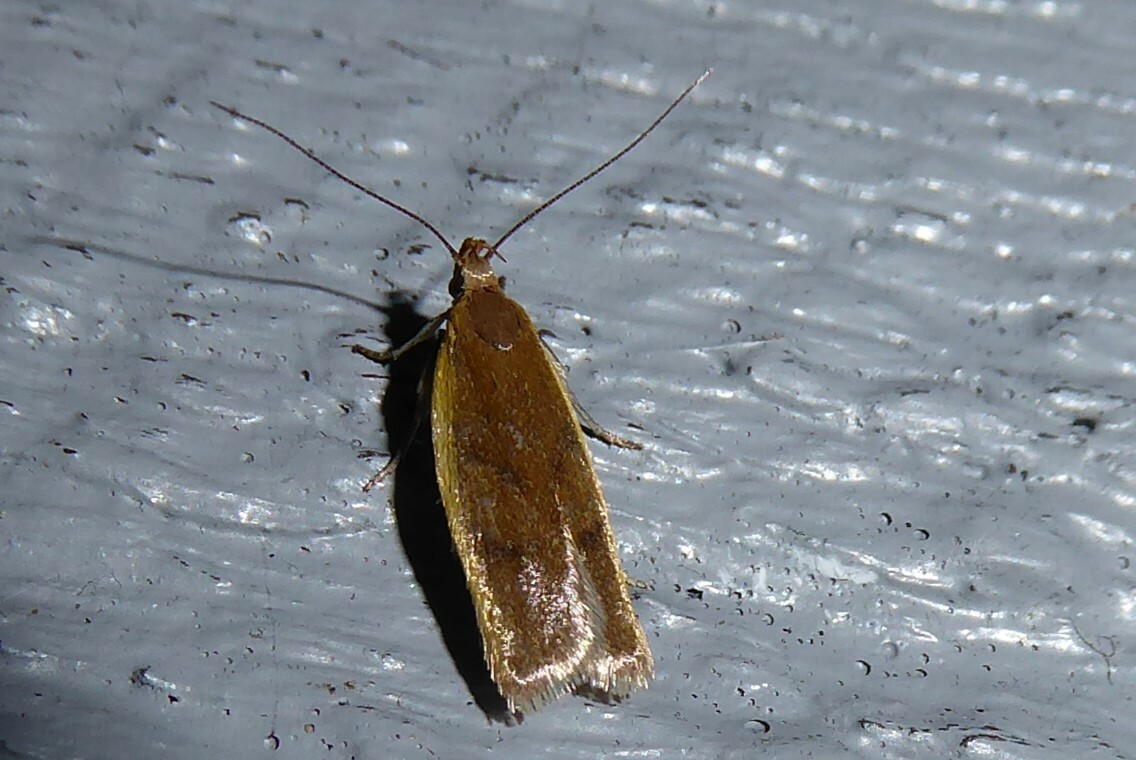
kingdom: Animalia
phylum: Arthropoda
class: Insecta
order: Lepidoptera
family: Oecophoridae
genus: Gymnobathra
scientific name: Gymnobathra parca
